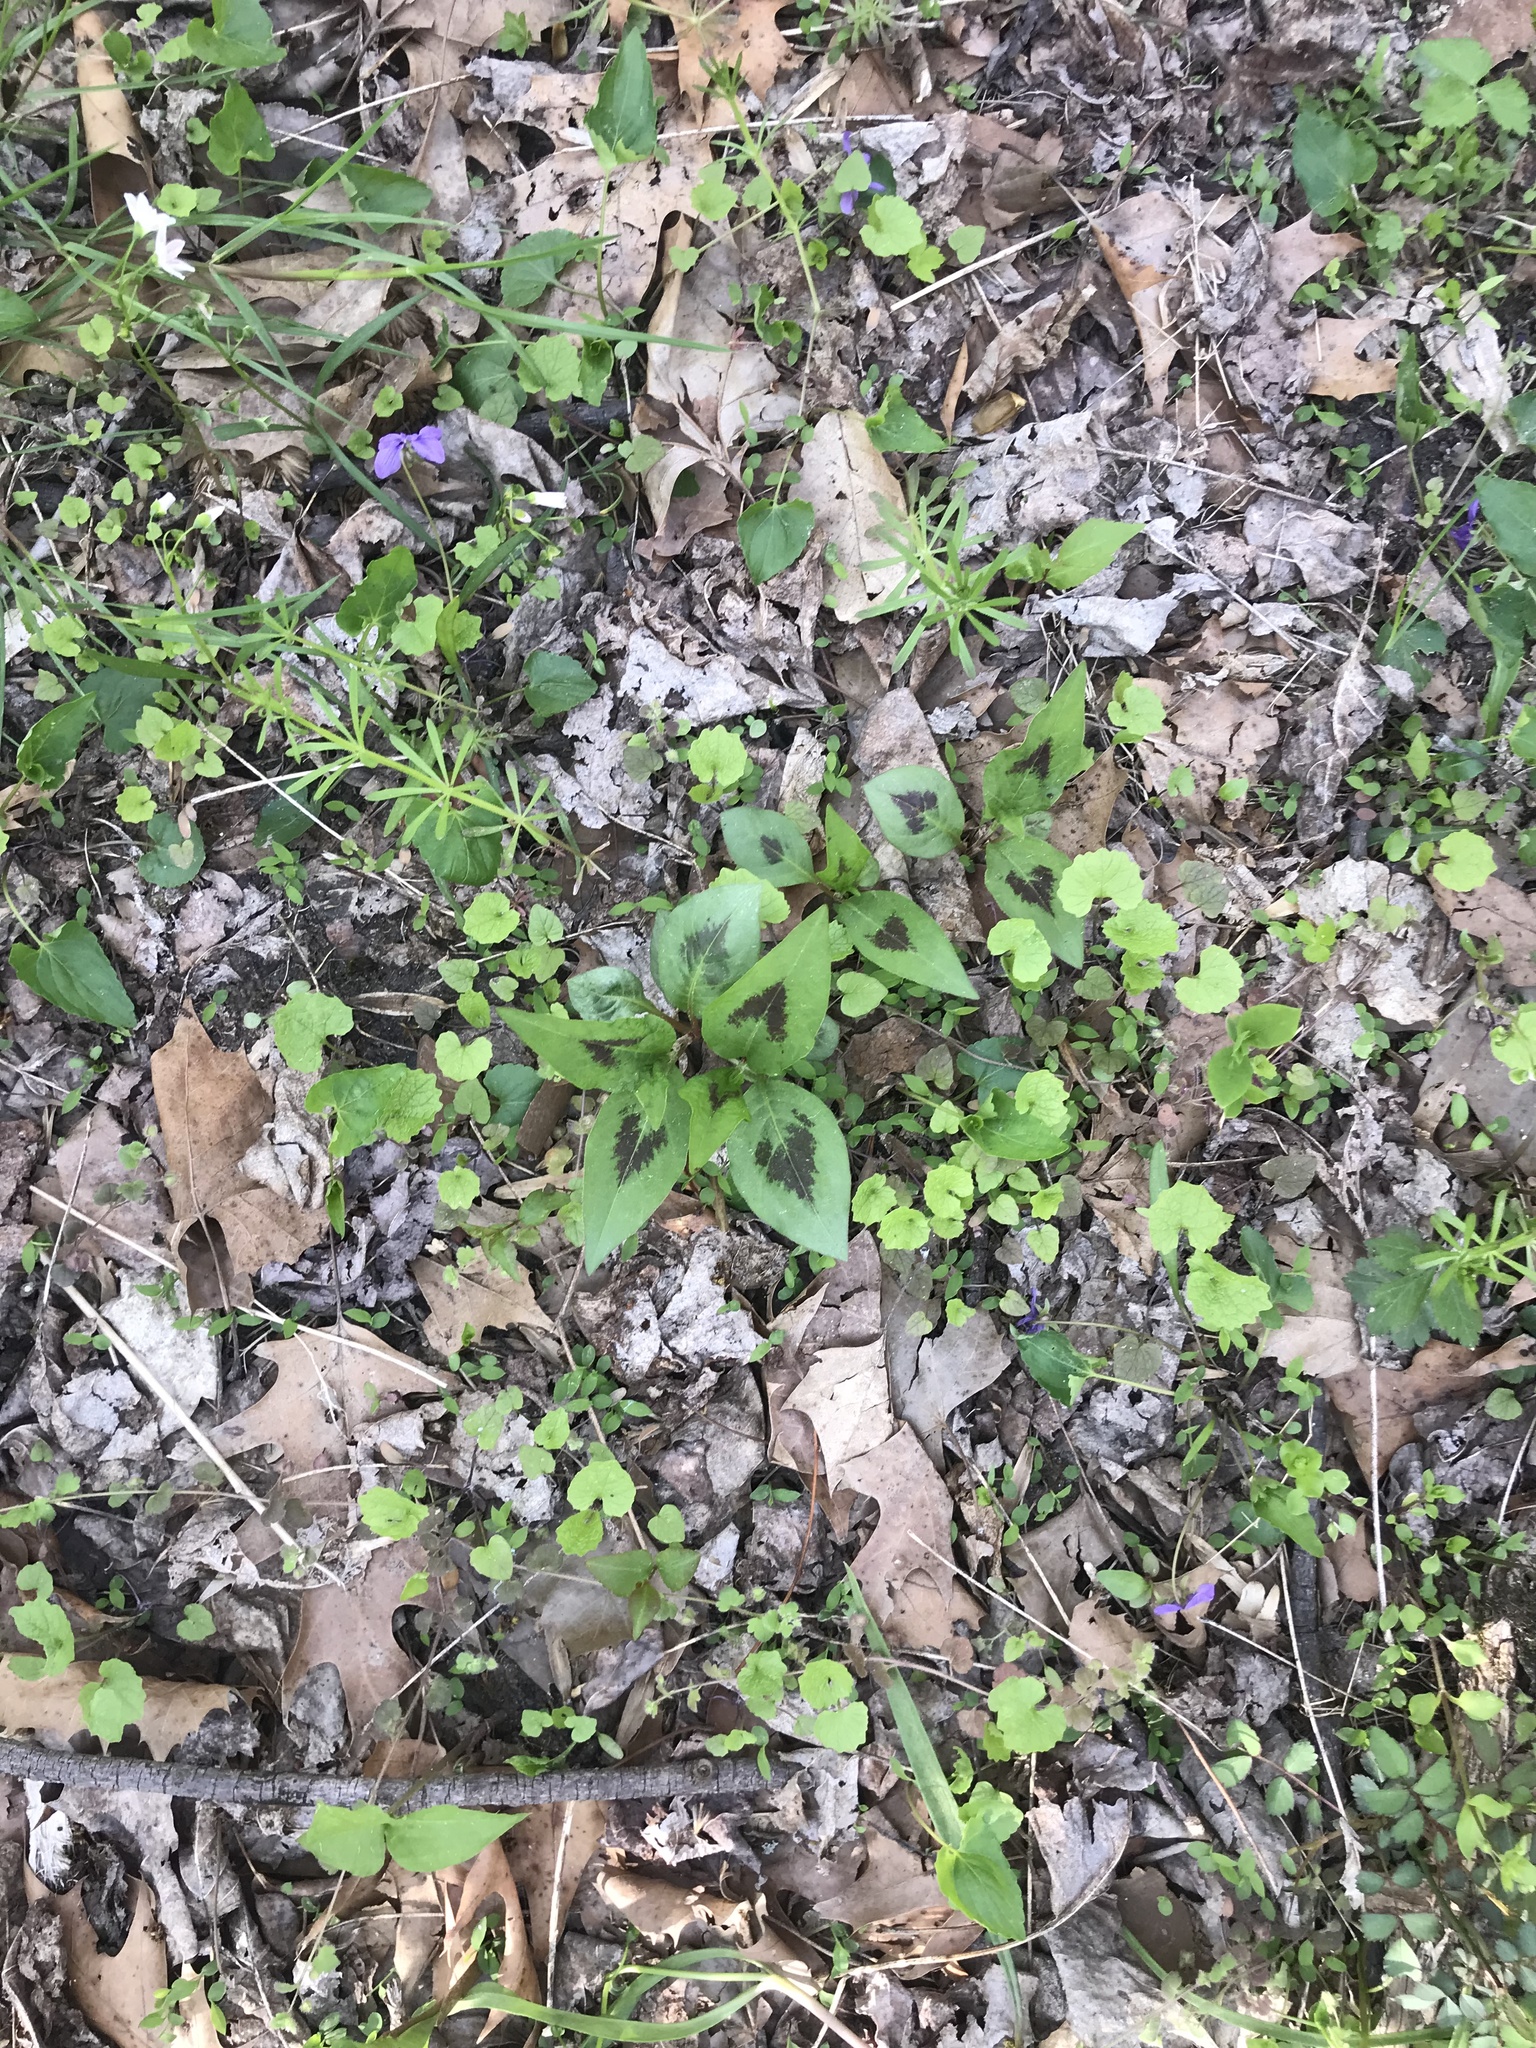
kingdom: Plantae
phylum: Tracheophyta
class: Magnoliopsida
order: Caryophyllales
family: Polygonaceae
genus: Persicaria
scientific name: Persicaria virginiana
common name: Jumpseed
